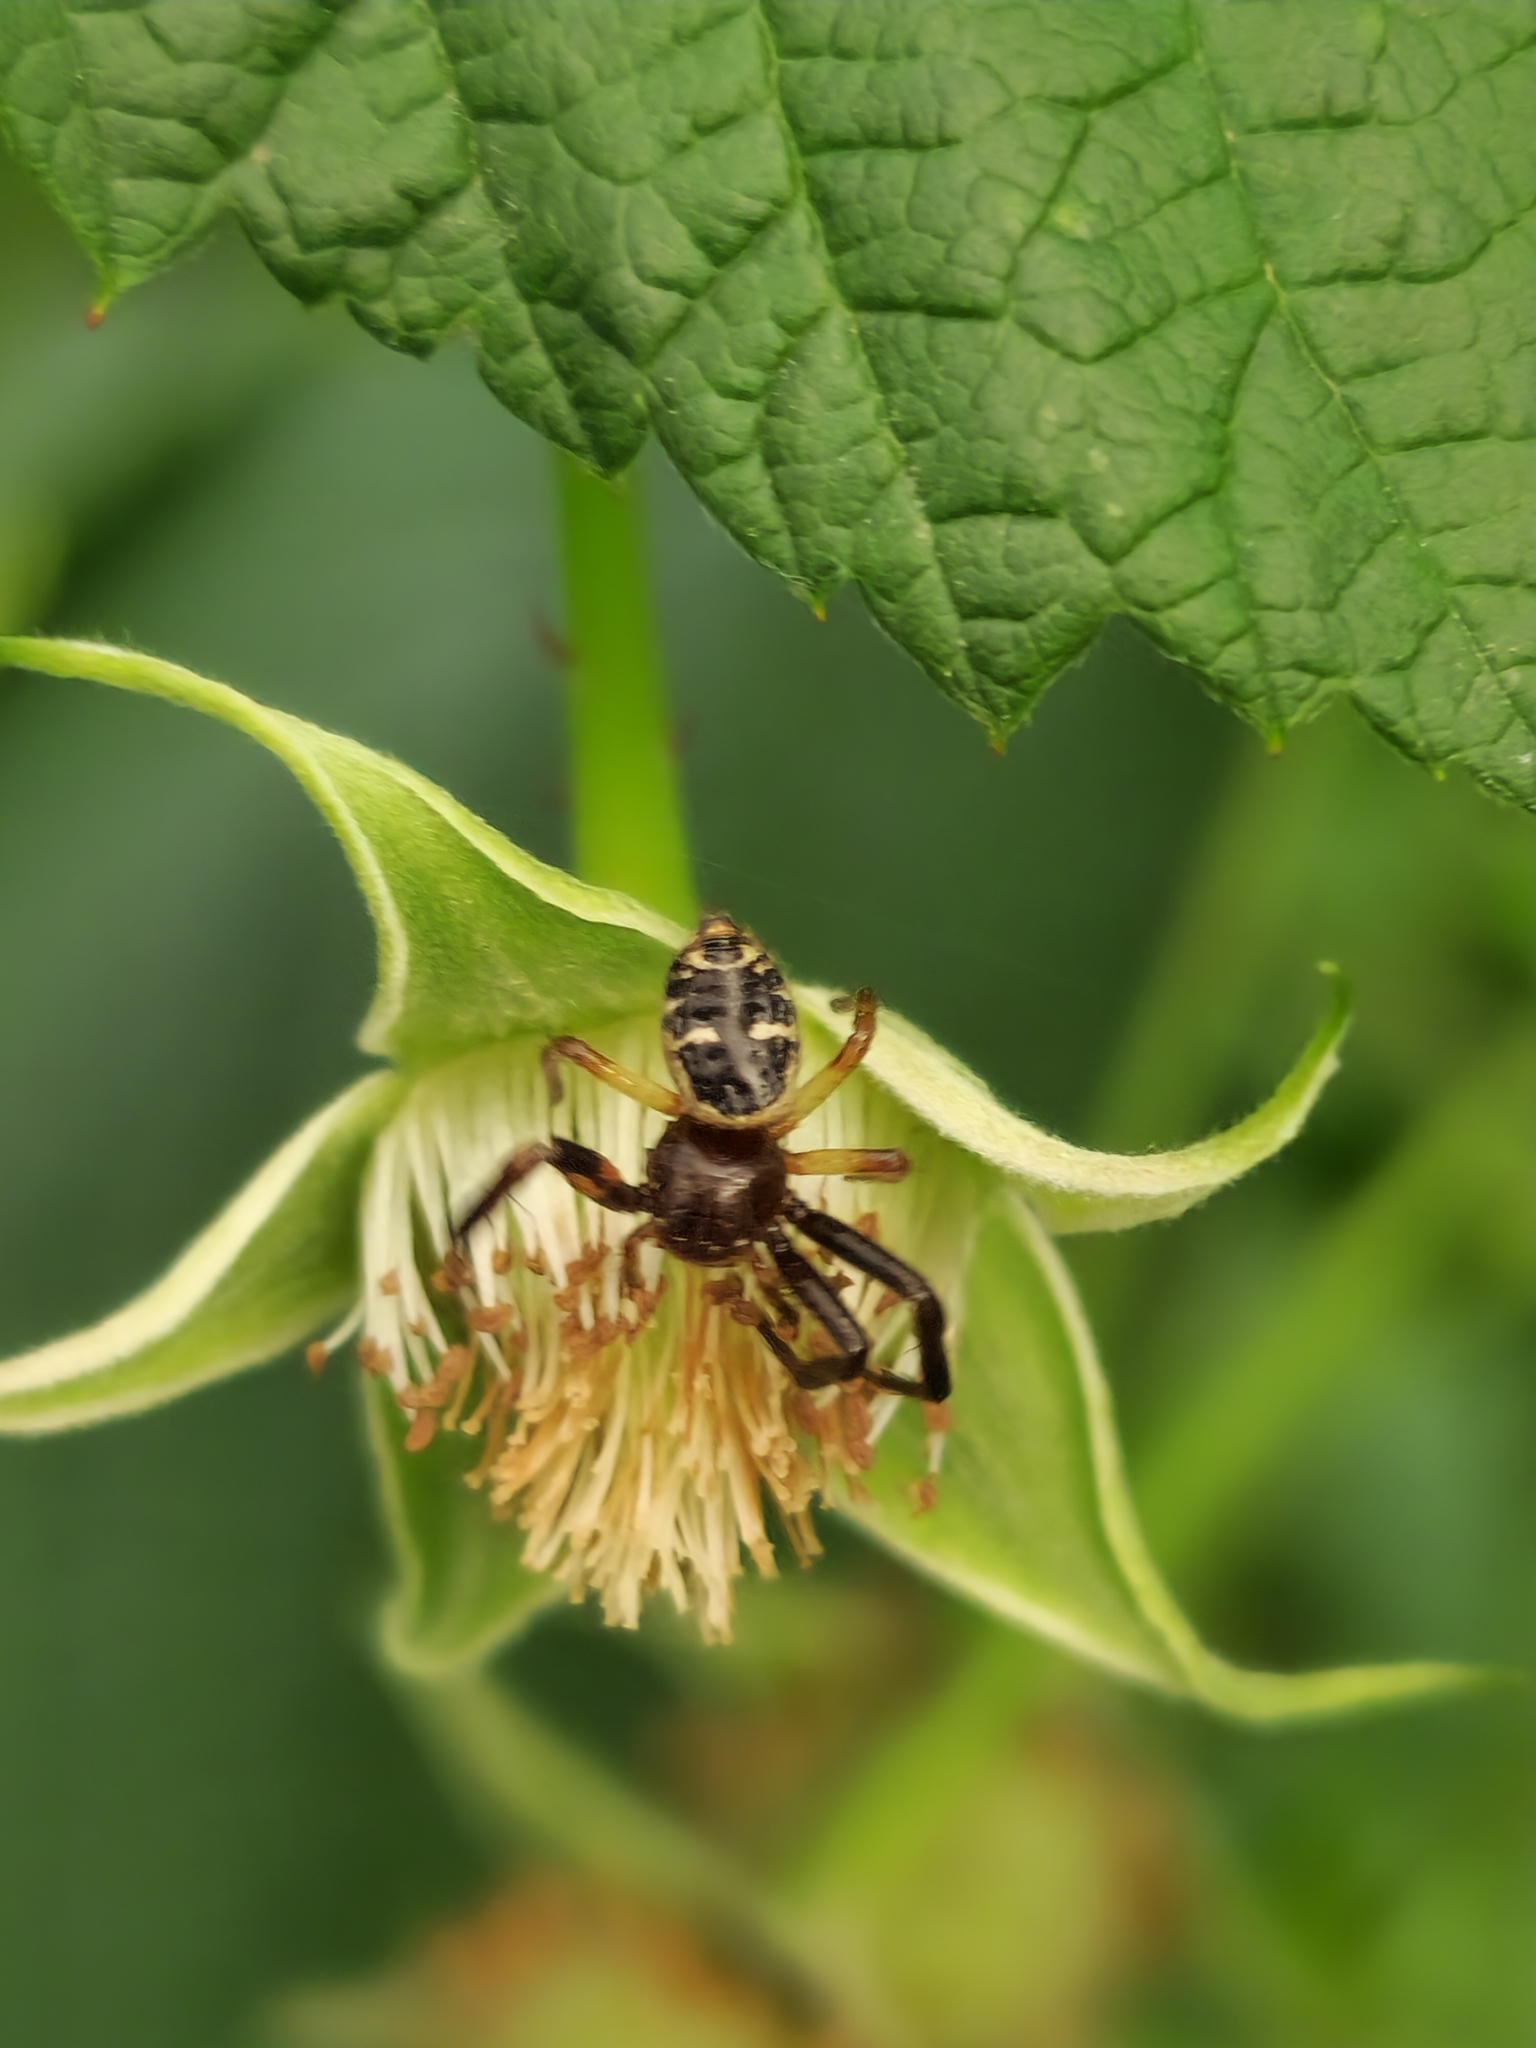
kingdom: Animalia
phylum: Arthropoda
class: Arachnida
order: Araneae
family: Thomisidae
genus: Synema
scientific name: Synema globosum
